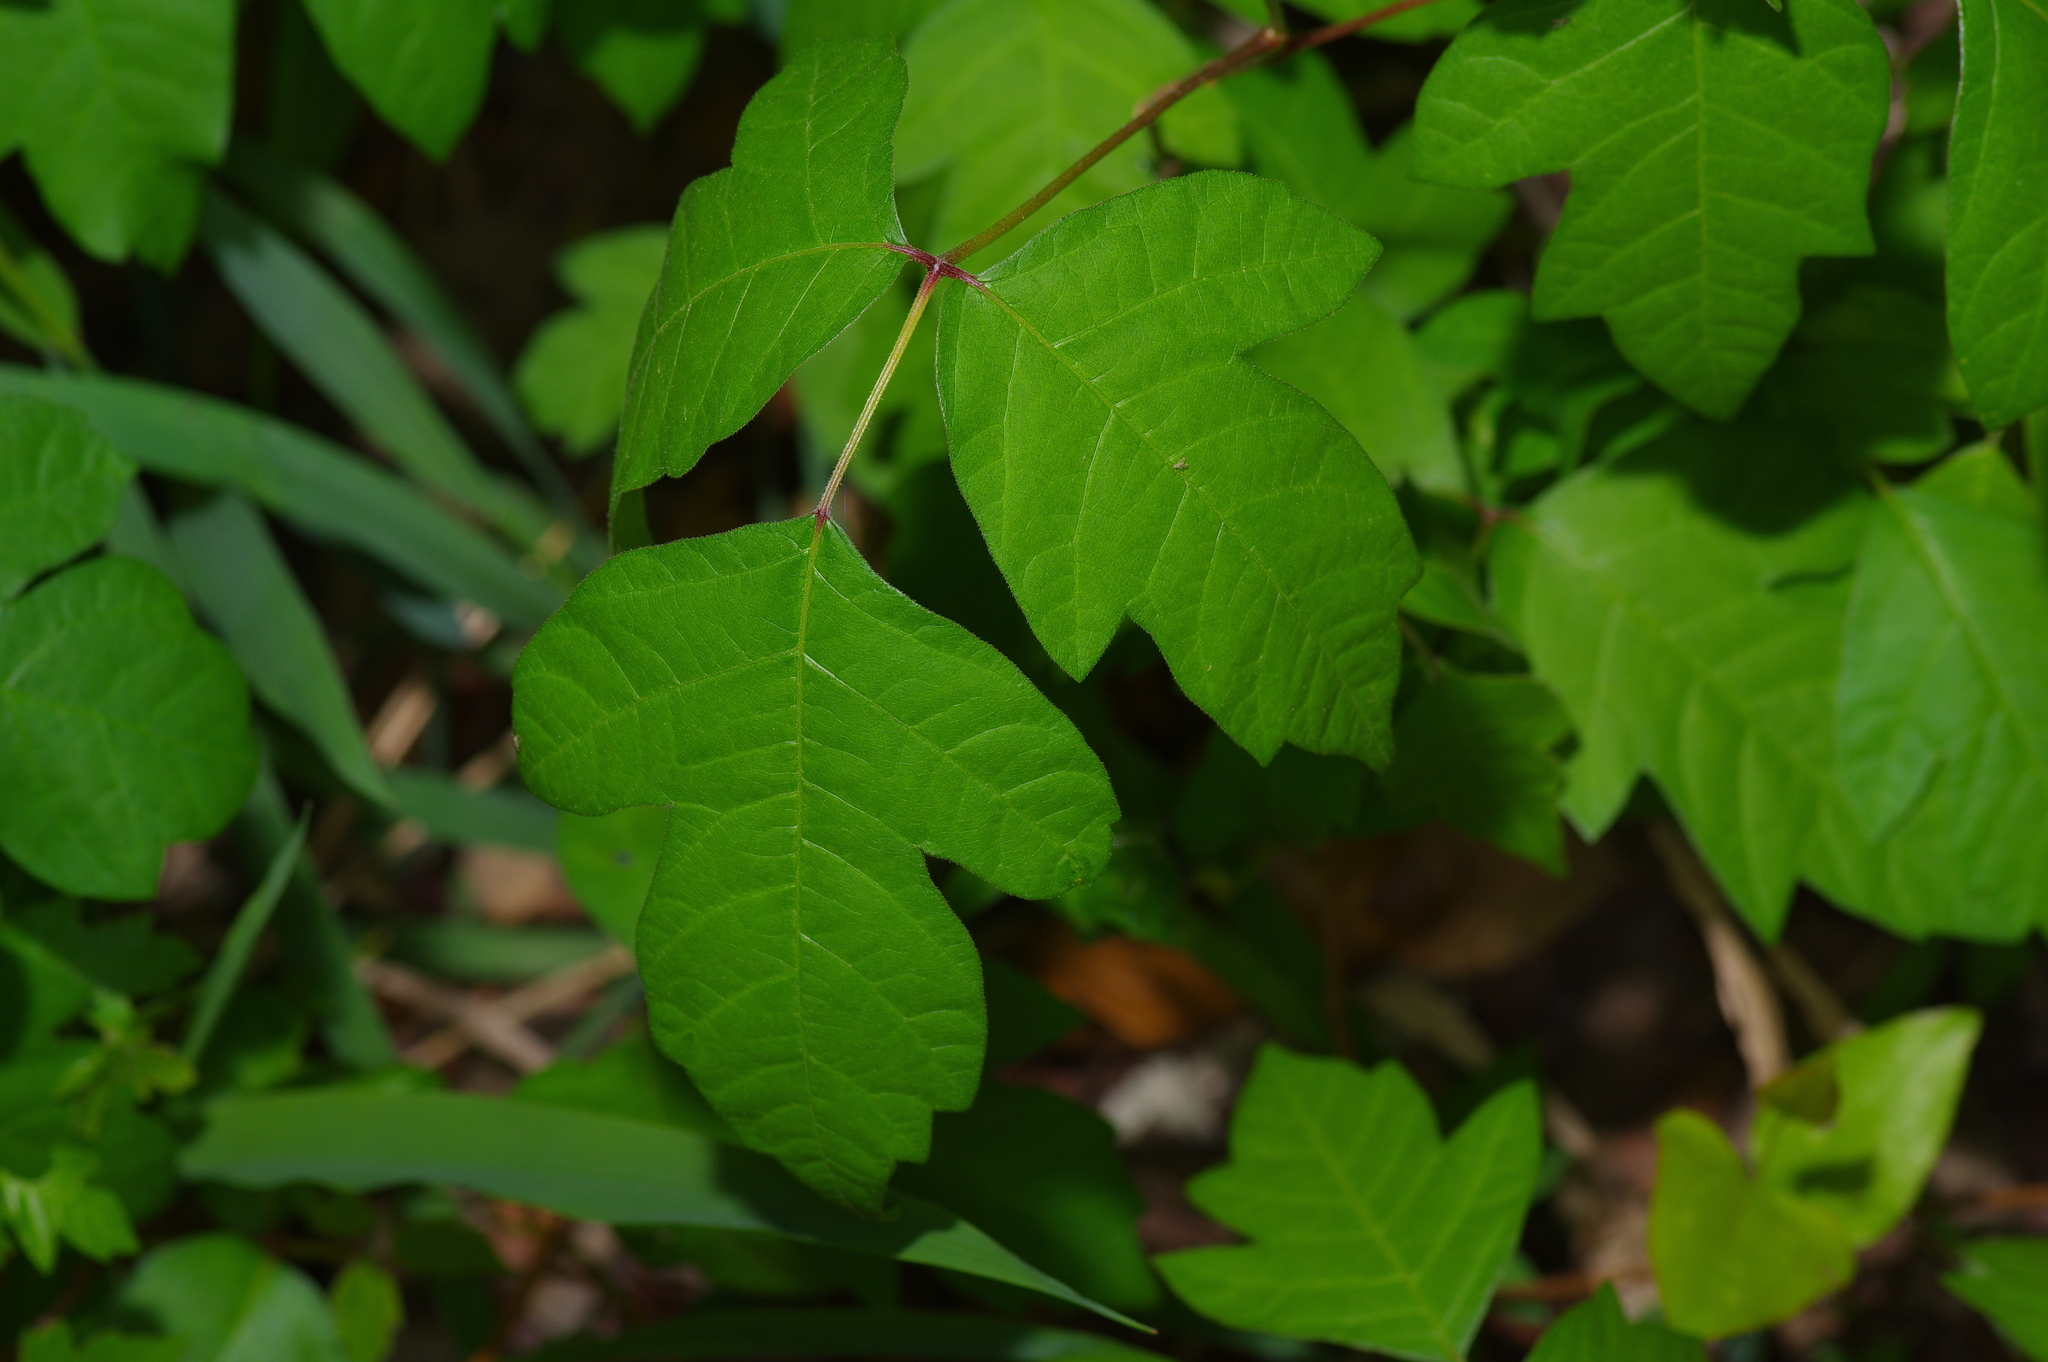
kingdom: Plantae
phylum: Tracheophyta
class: Magnoliopsida
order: Sapindales
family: Anacardiaceae
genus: Toxicodendron
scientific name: Toxicodendron radicans
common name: Poison ivy
